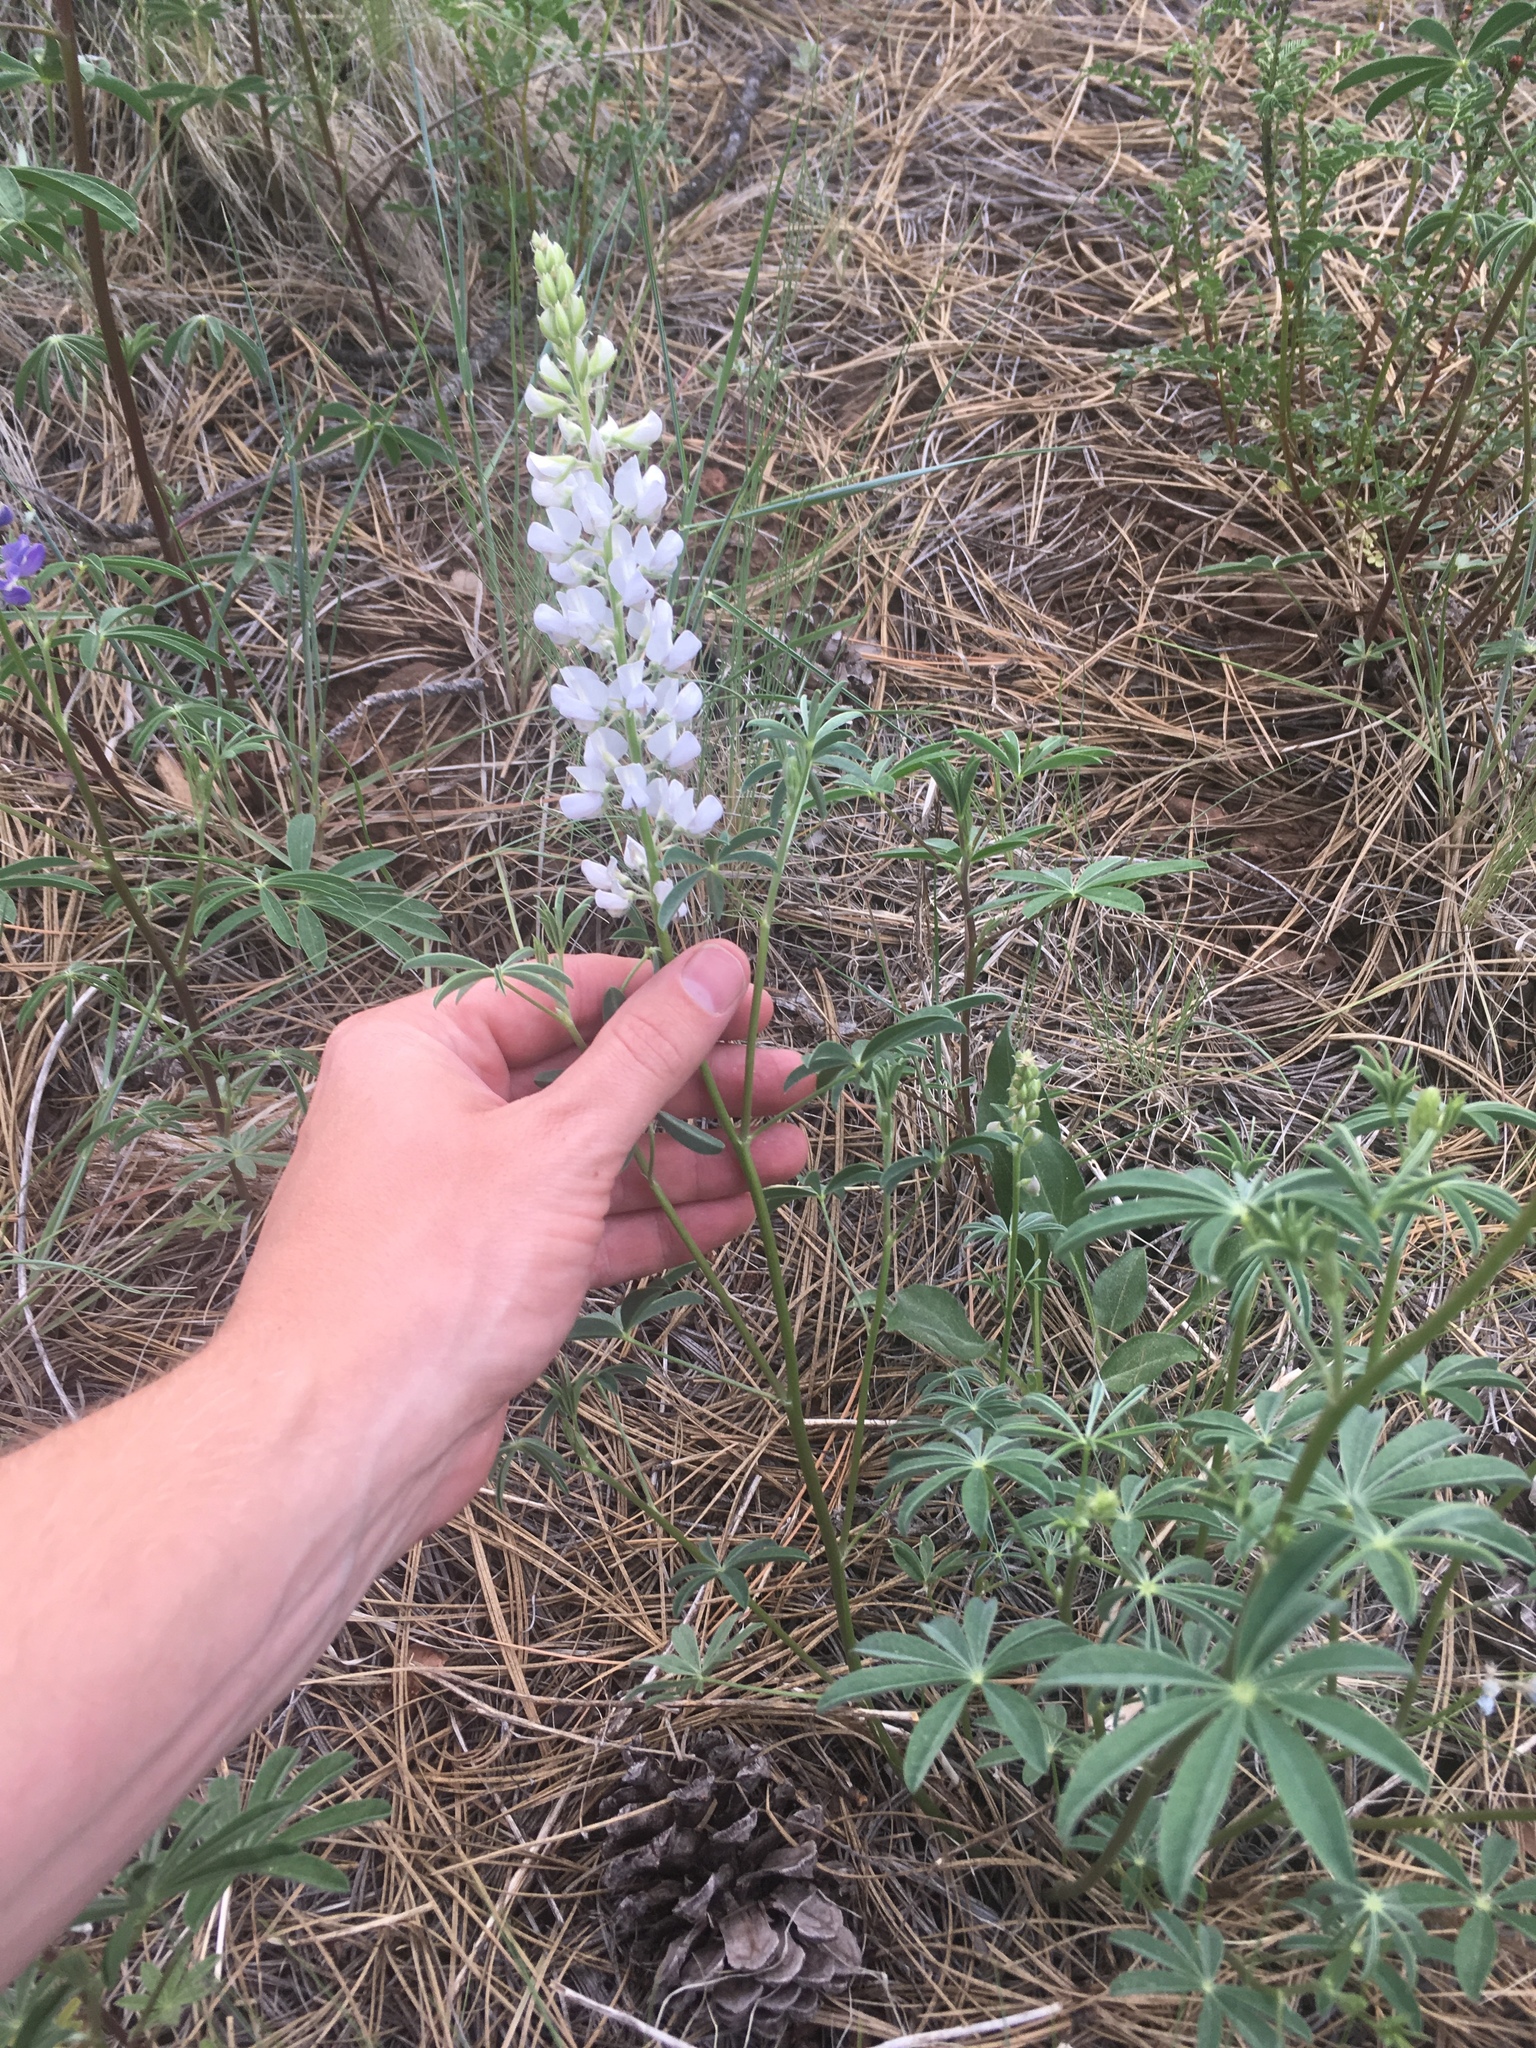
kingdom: Plantae
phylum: Tracheophyta
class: Magnoliopsida
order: Fabales
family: Fabaceae
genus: Lupinus
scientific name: Lupinus argenteus
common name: Silvery lupine
